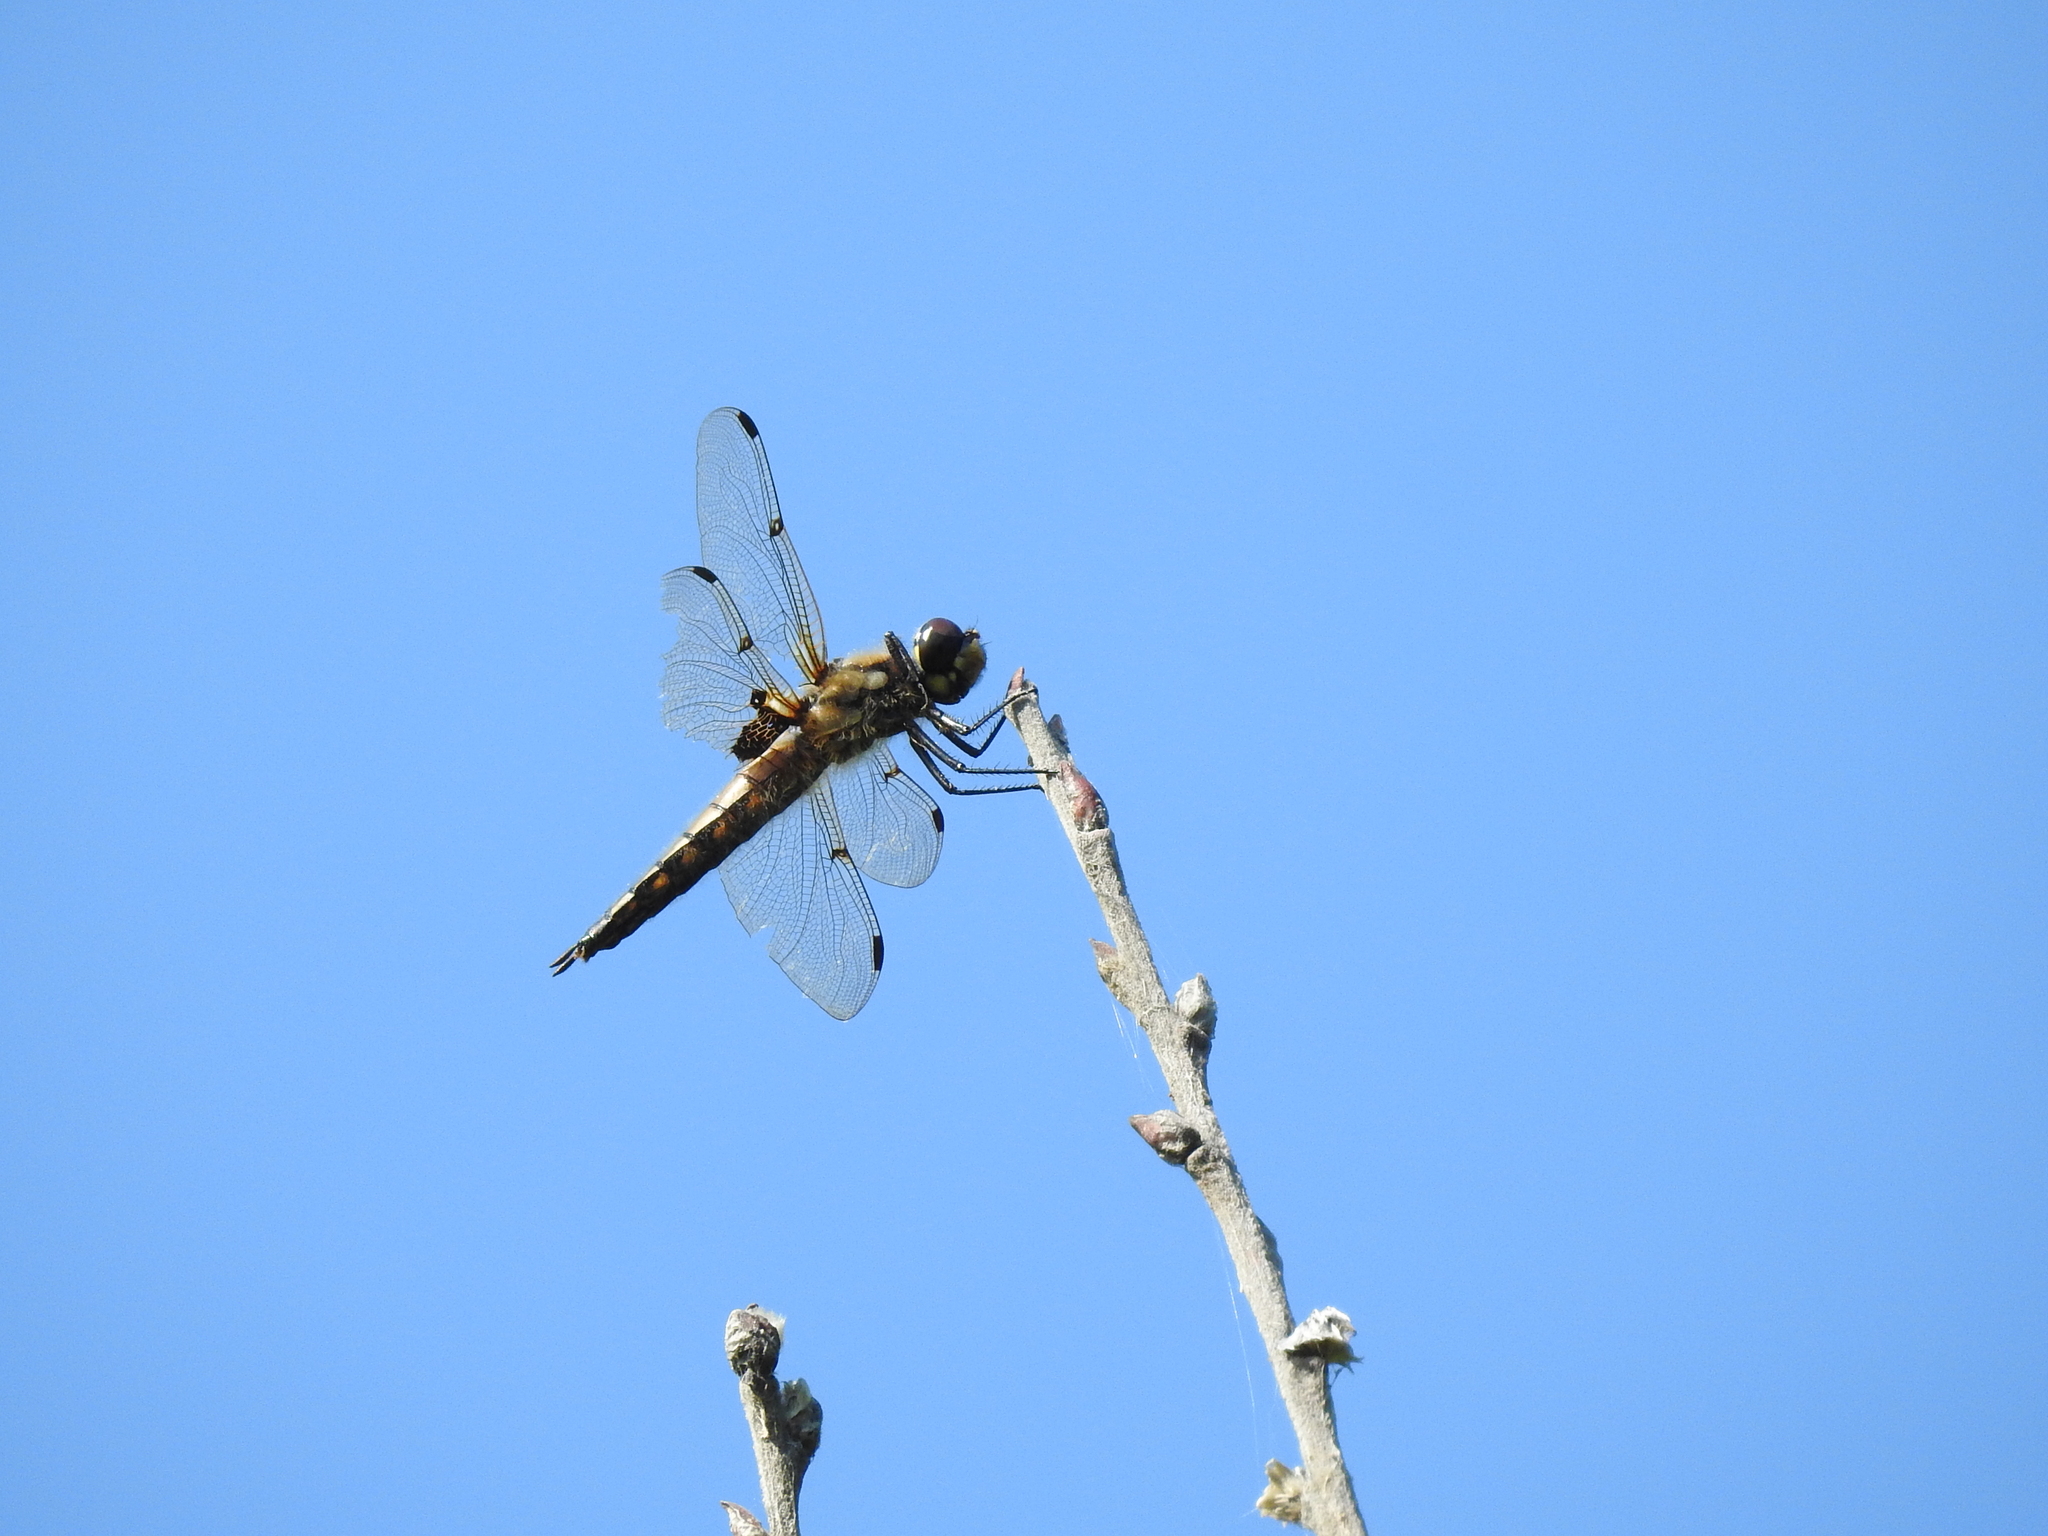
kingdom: Animalia
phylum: Arthropoda
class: Insecta
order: Odonata
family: Libellulidae
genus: Libellula
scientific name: Libellula quadrimaculata
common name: Four-spotted chaser
